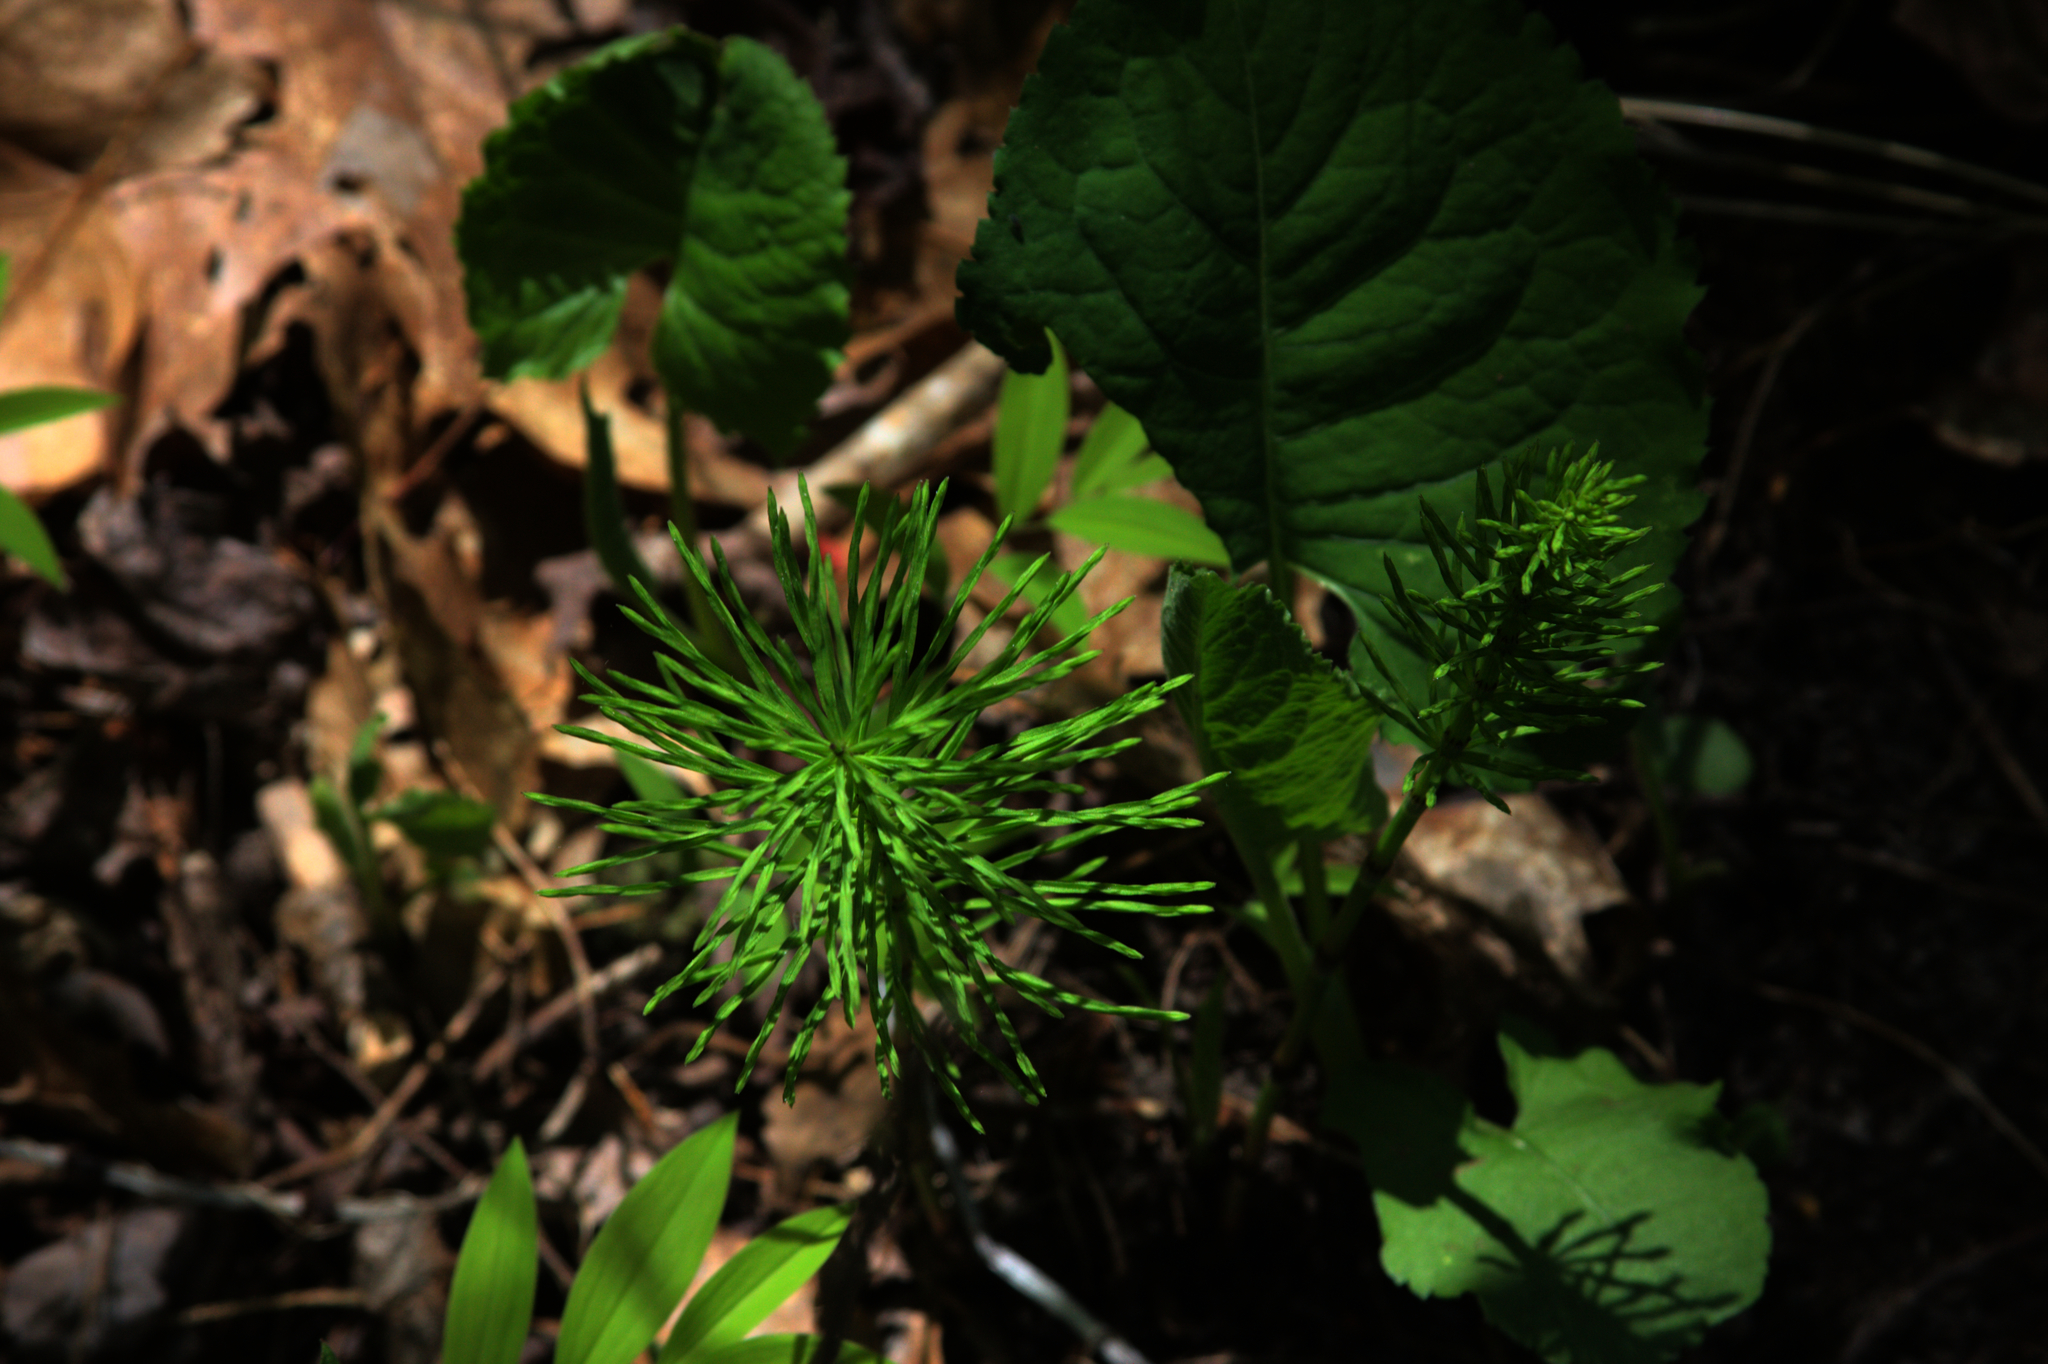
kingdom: Plantae
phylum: Tracheophyta
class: Polypodiopsida
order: Equisetales
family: Equisetaceae
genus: Equisetum
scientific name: Equisetum arvense
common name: Field horsetail
